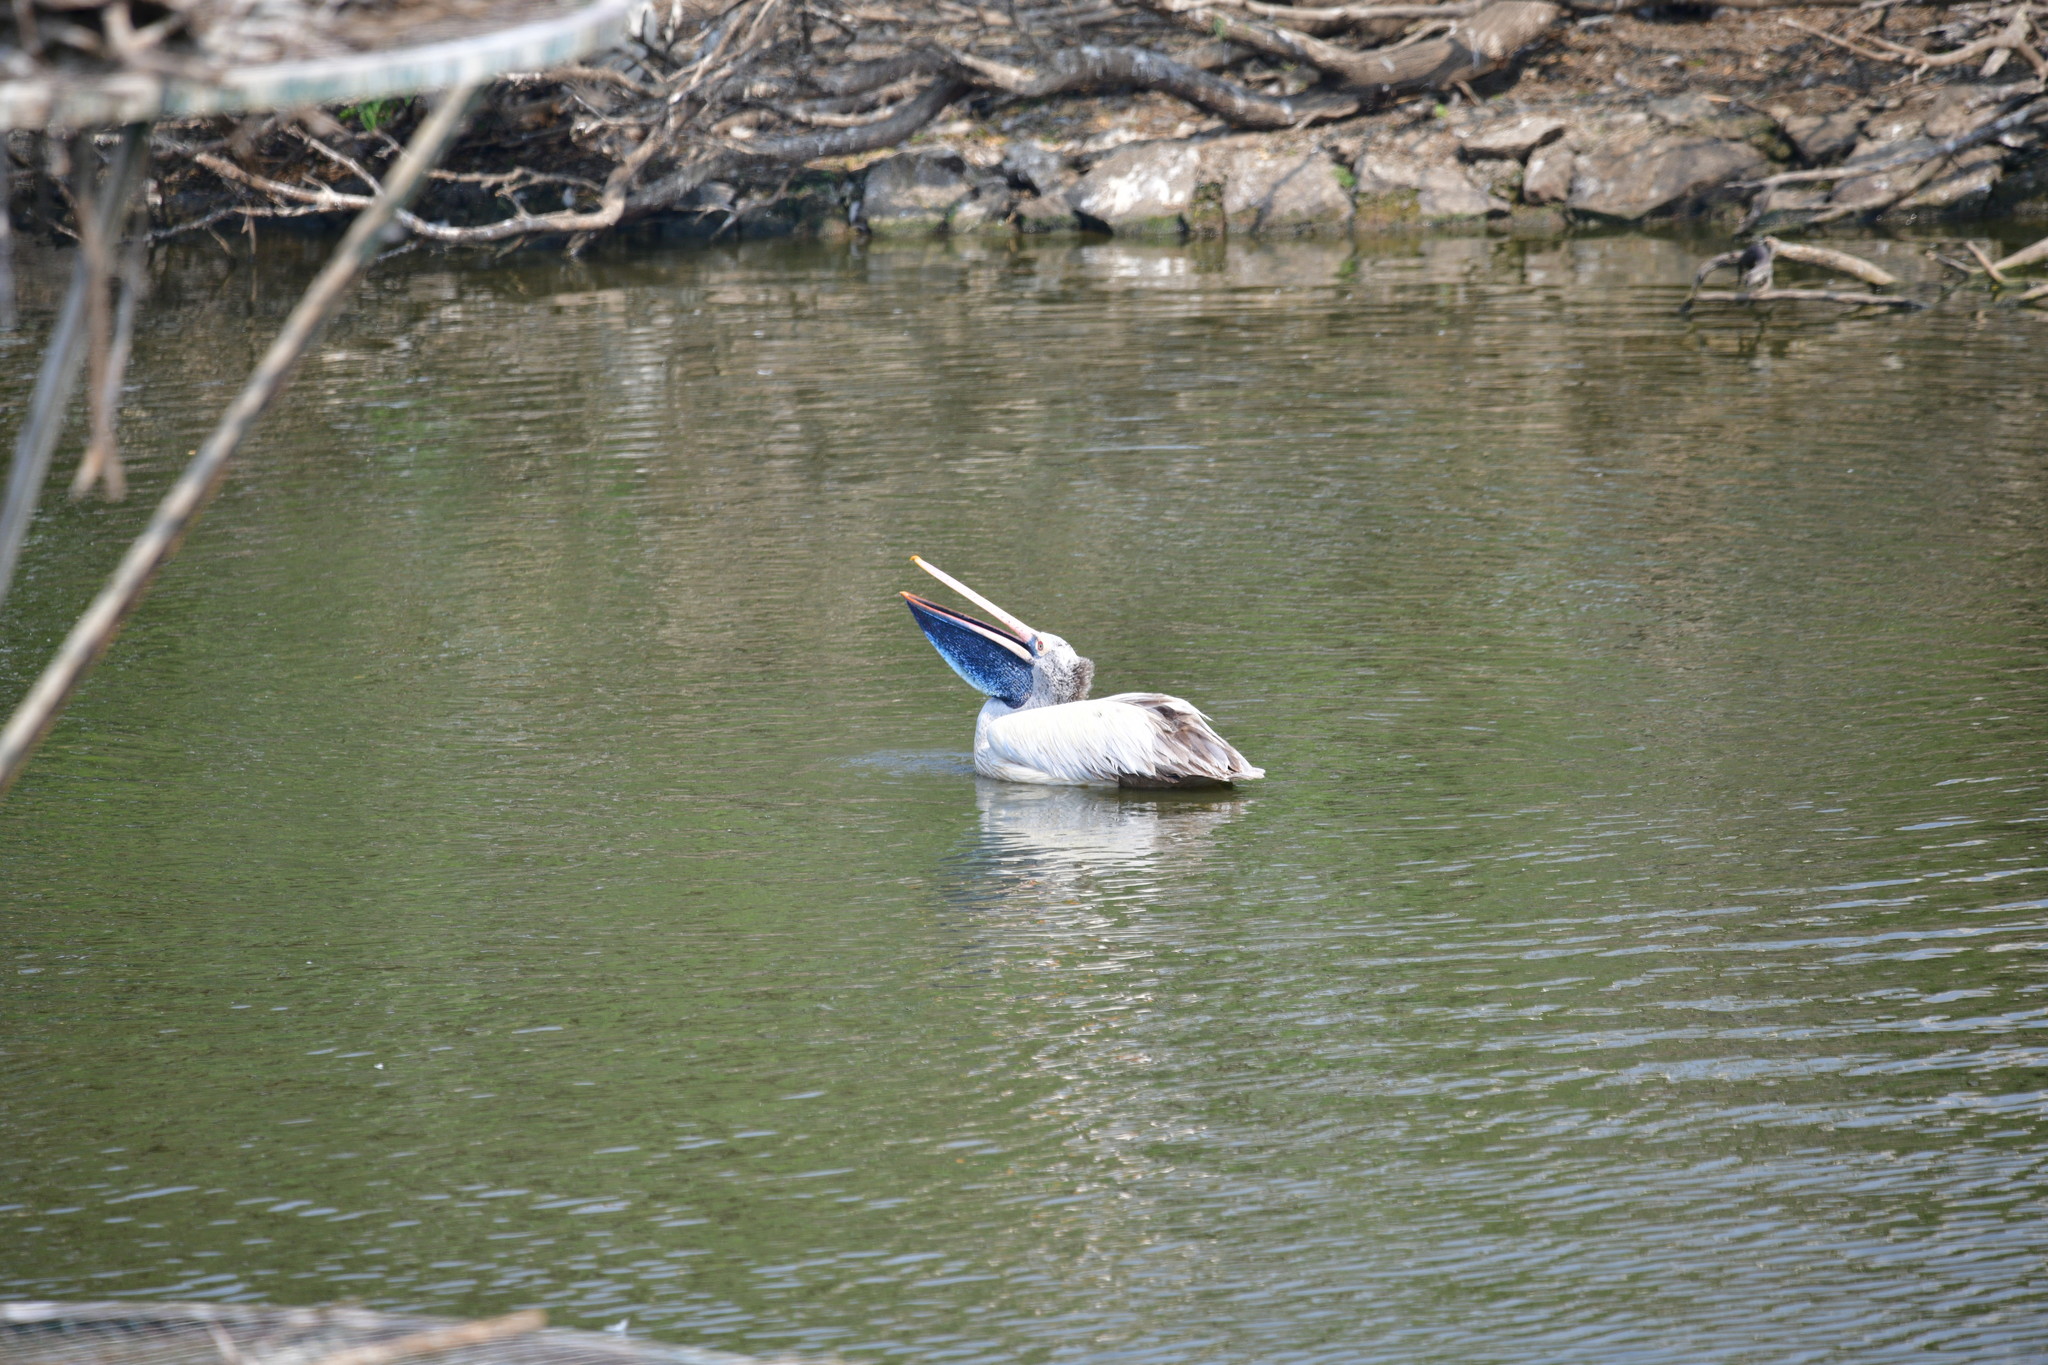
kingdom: Animalia
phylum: Chordata
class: Aves
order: Pelecaniformes
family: Pelecanidae
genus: Pelecanus
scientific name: Pelecanus philippensis
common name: Spot-billed pelican
